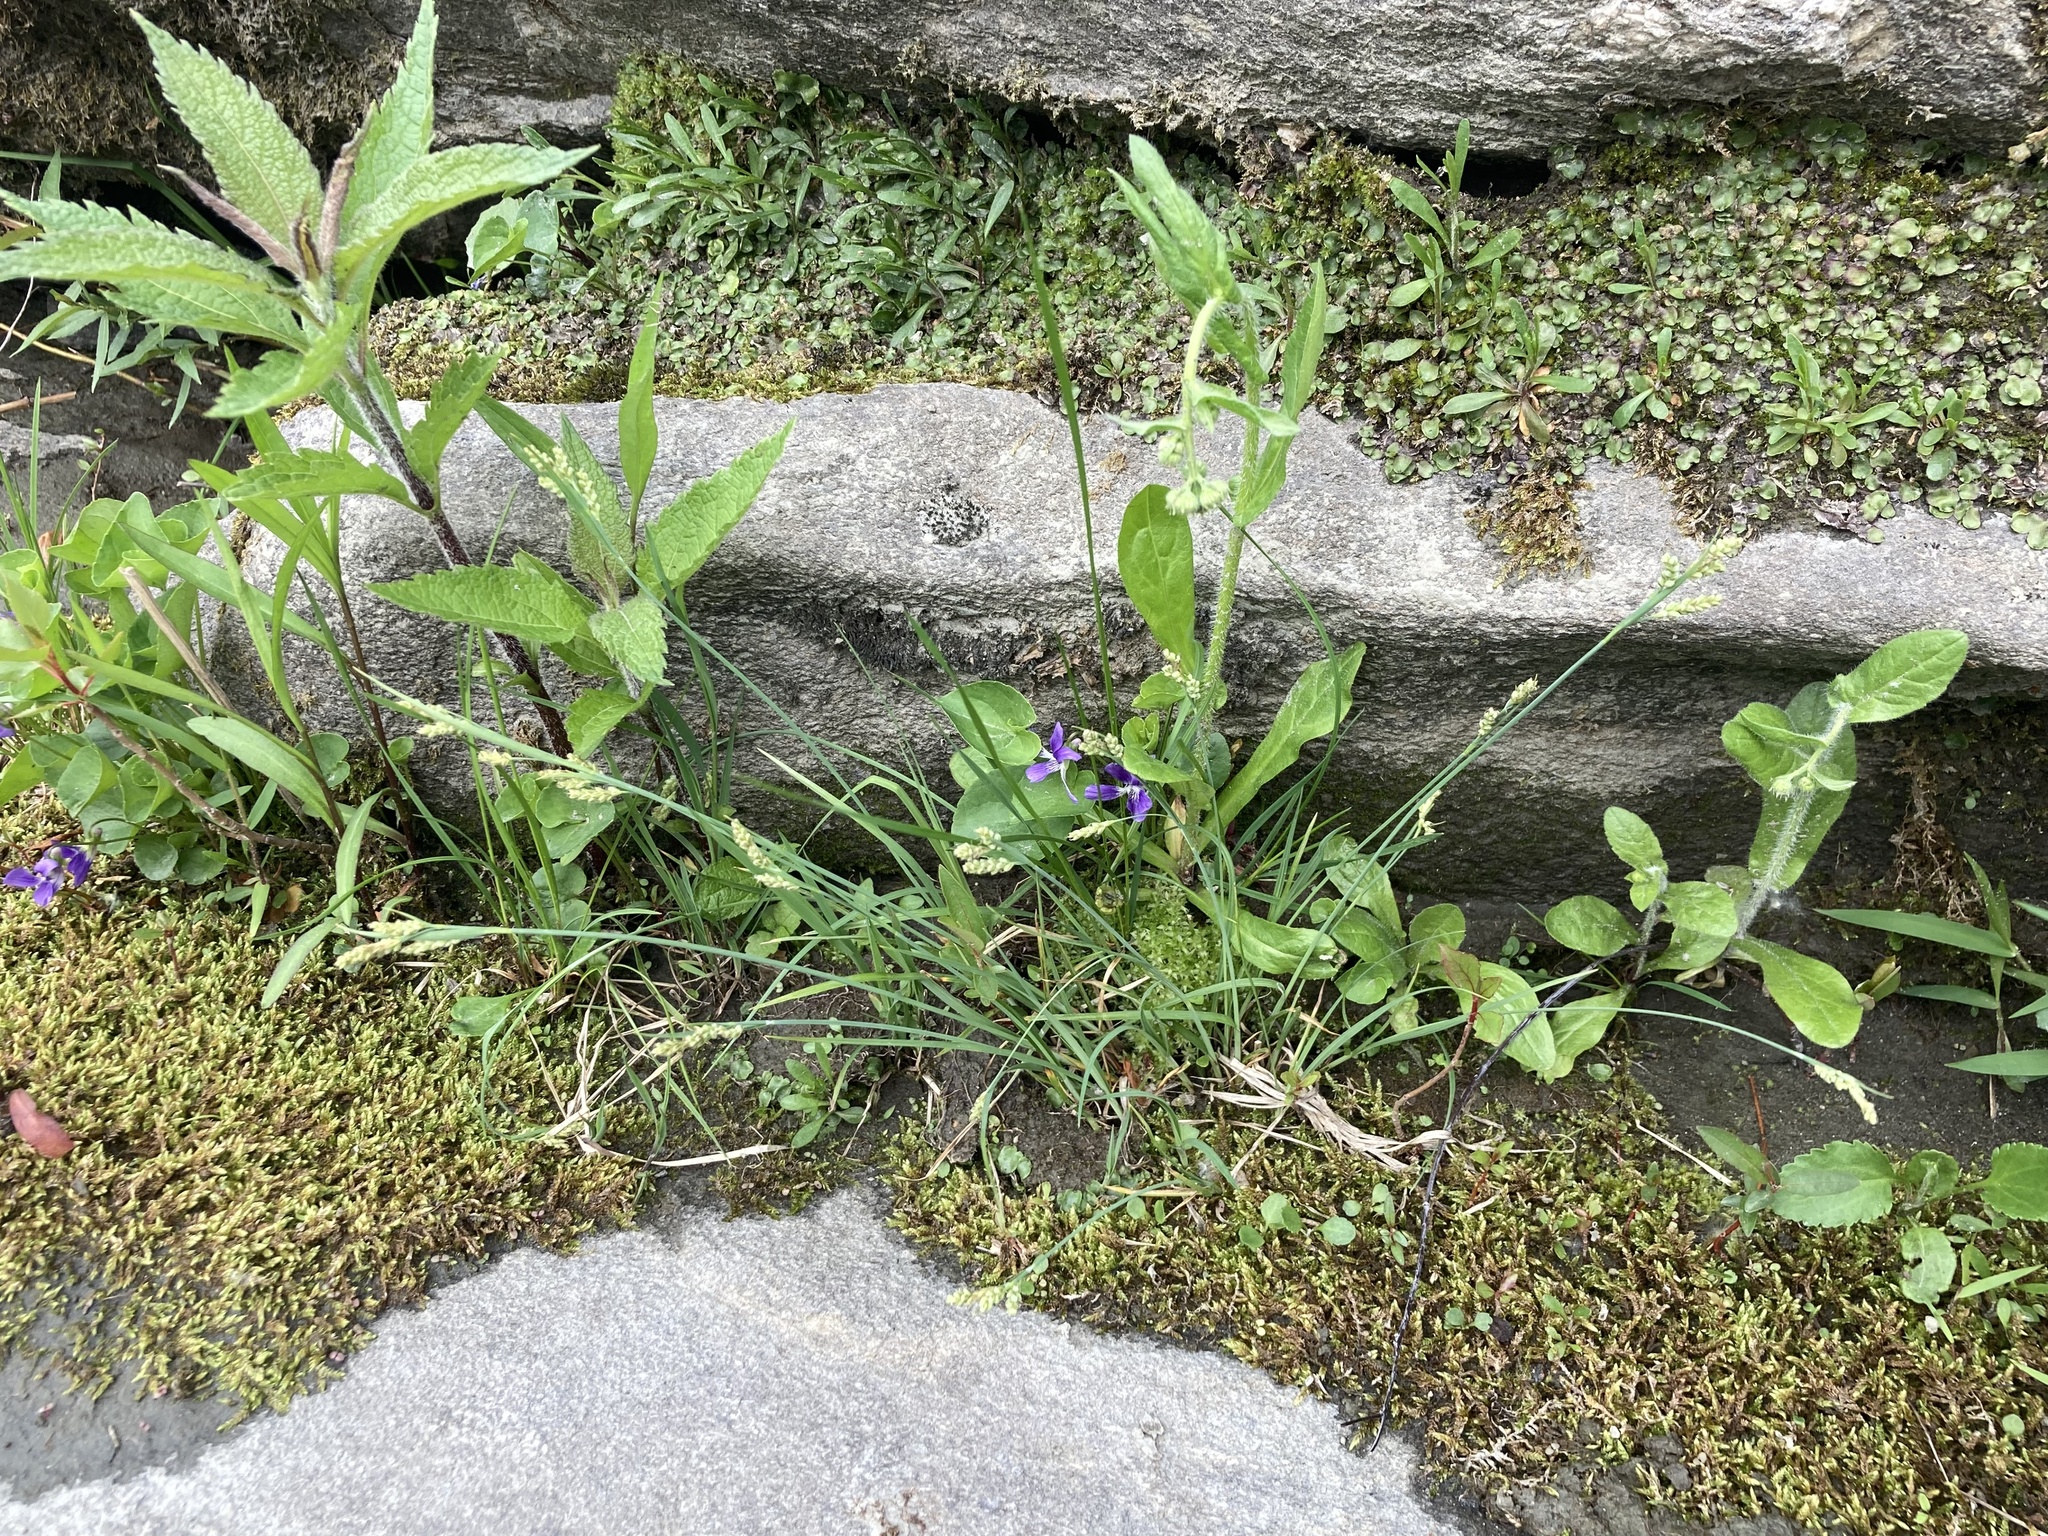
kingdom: Plantae
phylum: Tracheophyta
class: Magnoliopsida
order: Asterales
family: Asteraceae
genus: Eutrochium
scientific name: Eutrochium maculatum
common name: Spotted joe pye weed
